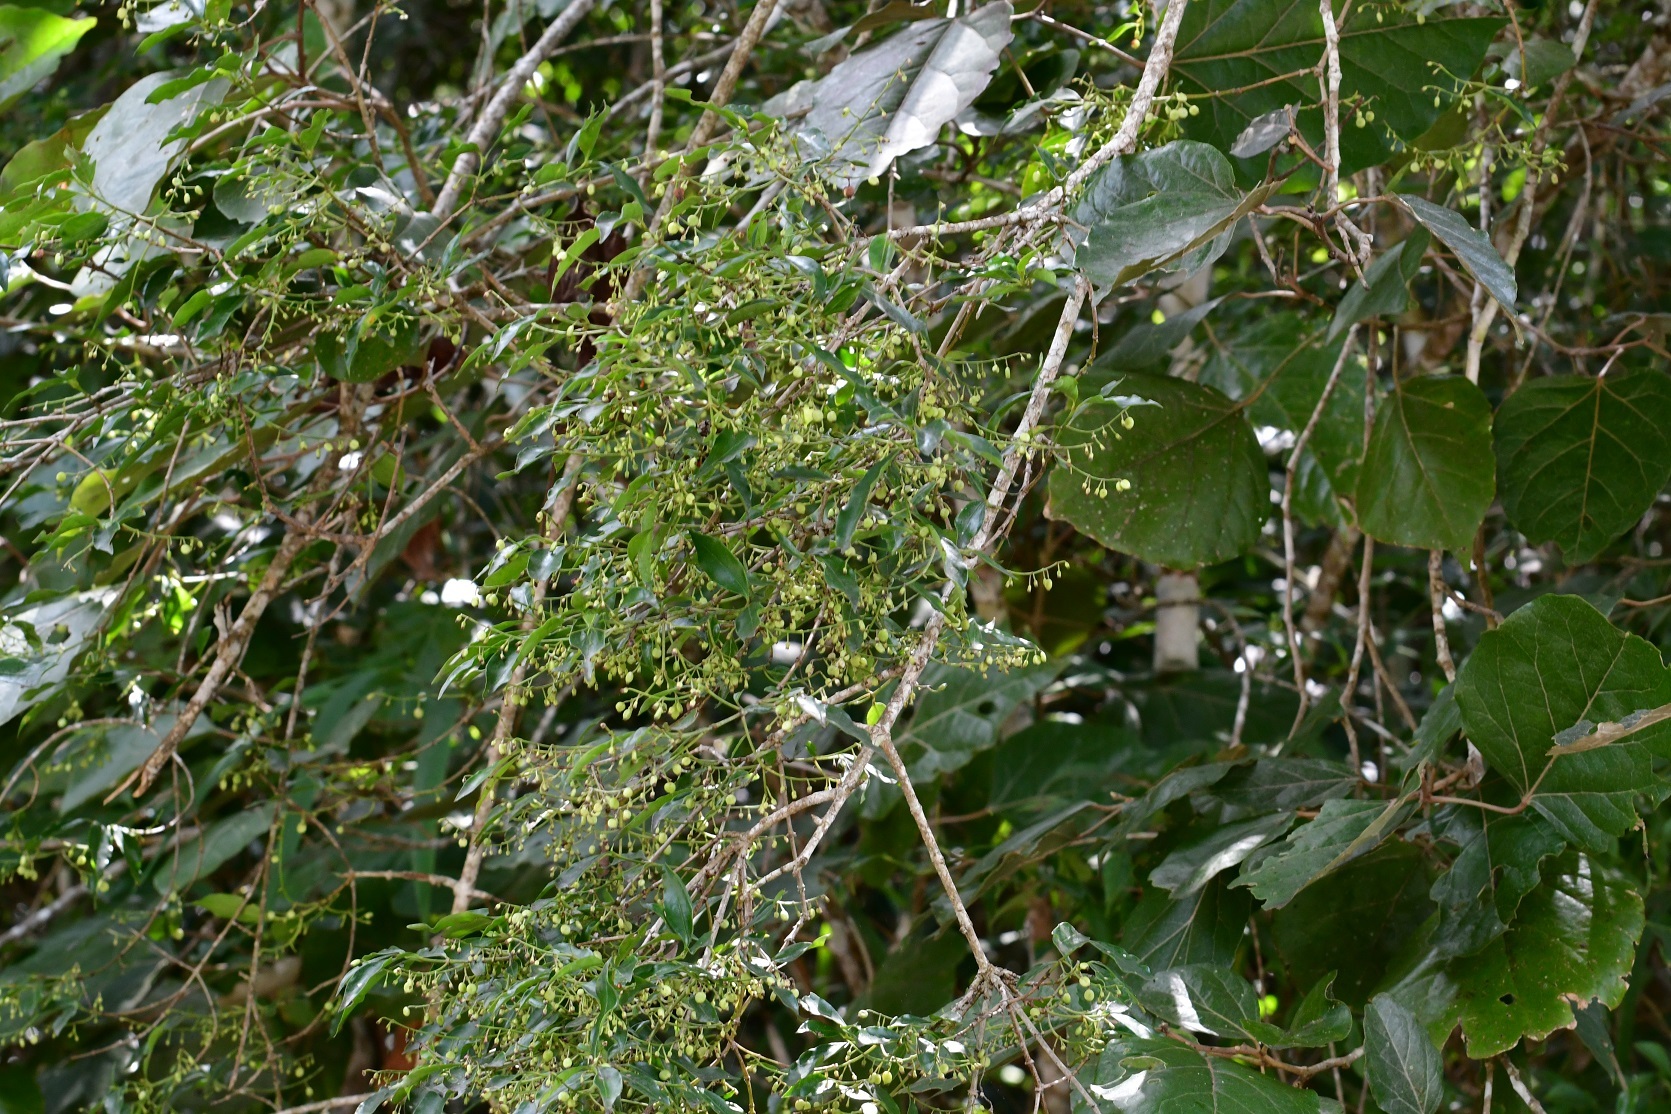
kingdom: Plantae
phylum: Tracheophyta
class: Magnoliopsida
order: Gentianales
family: Rubiaceae
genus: Chiococca
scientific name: Chiococca alba
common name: Snowberry
